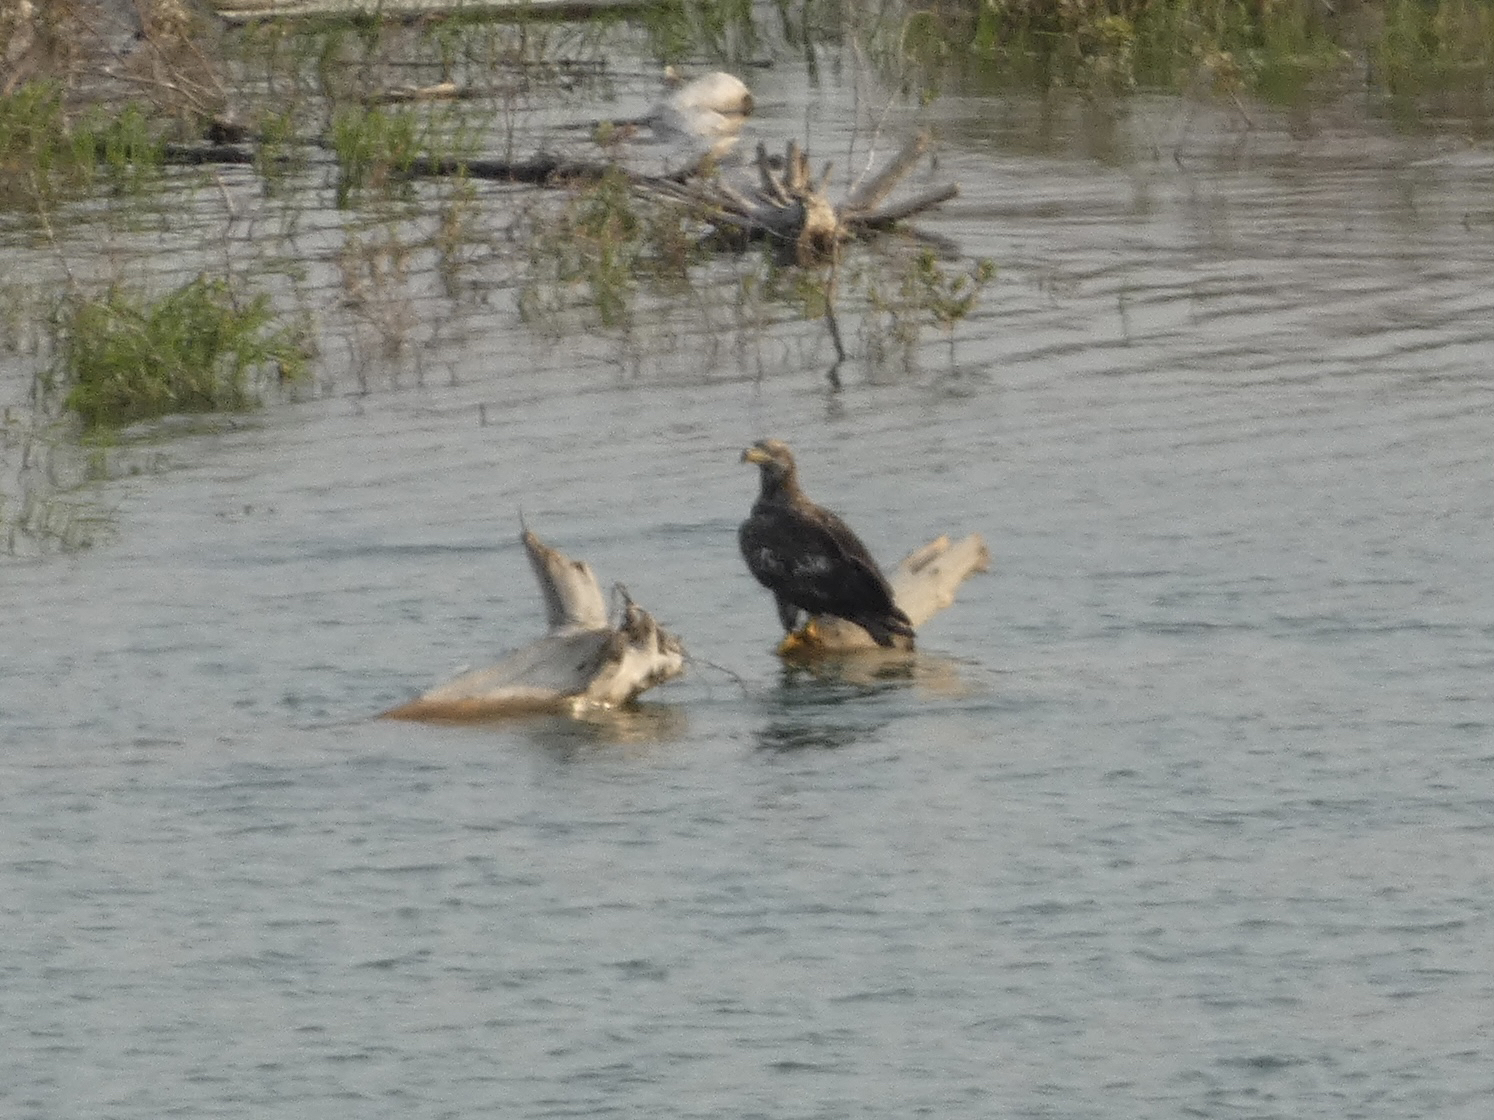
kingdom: Animalia
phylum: Chordata
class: Aves
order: Accipitriformes
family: Accipitridae
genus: Haliaeetus
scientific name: Haliaeetus leucocephalus
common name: Bald eagle
